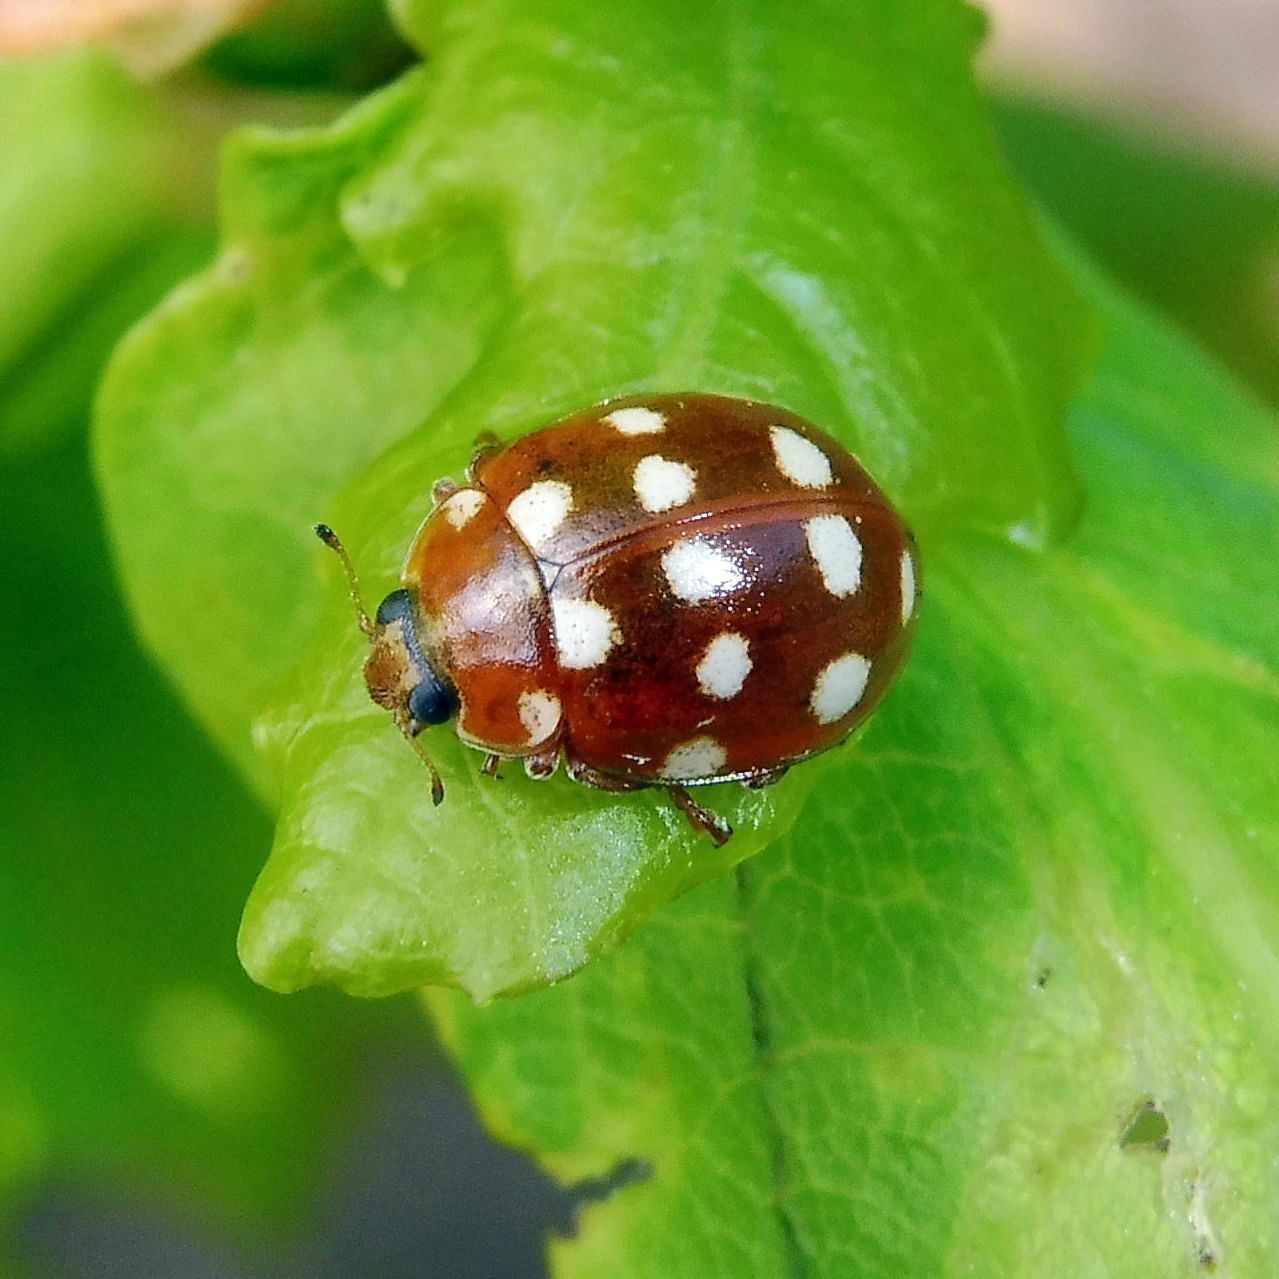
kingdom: Animalia
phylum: Arthropoda
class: Insecta
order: Coleoptera
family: Coccinellidae
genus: Calvia
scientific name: Calvia quatuordecimguttata
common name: Cream-spot ladybird
